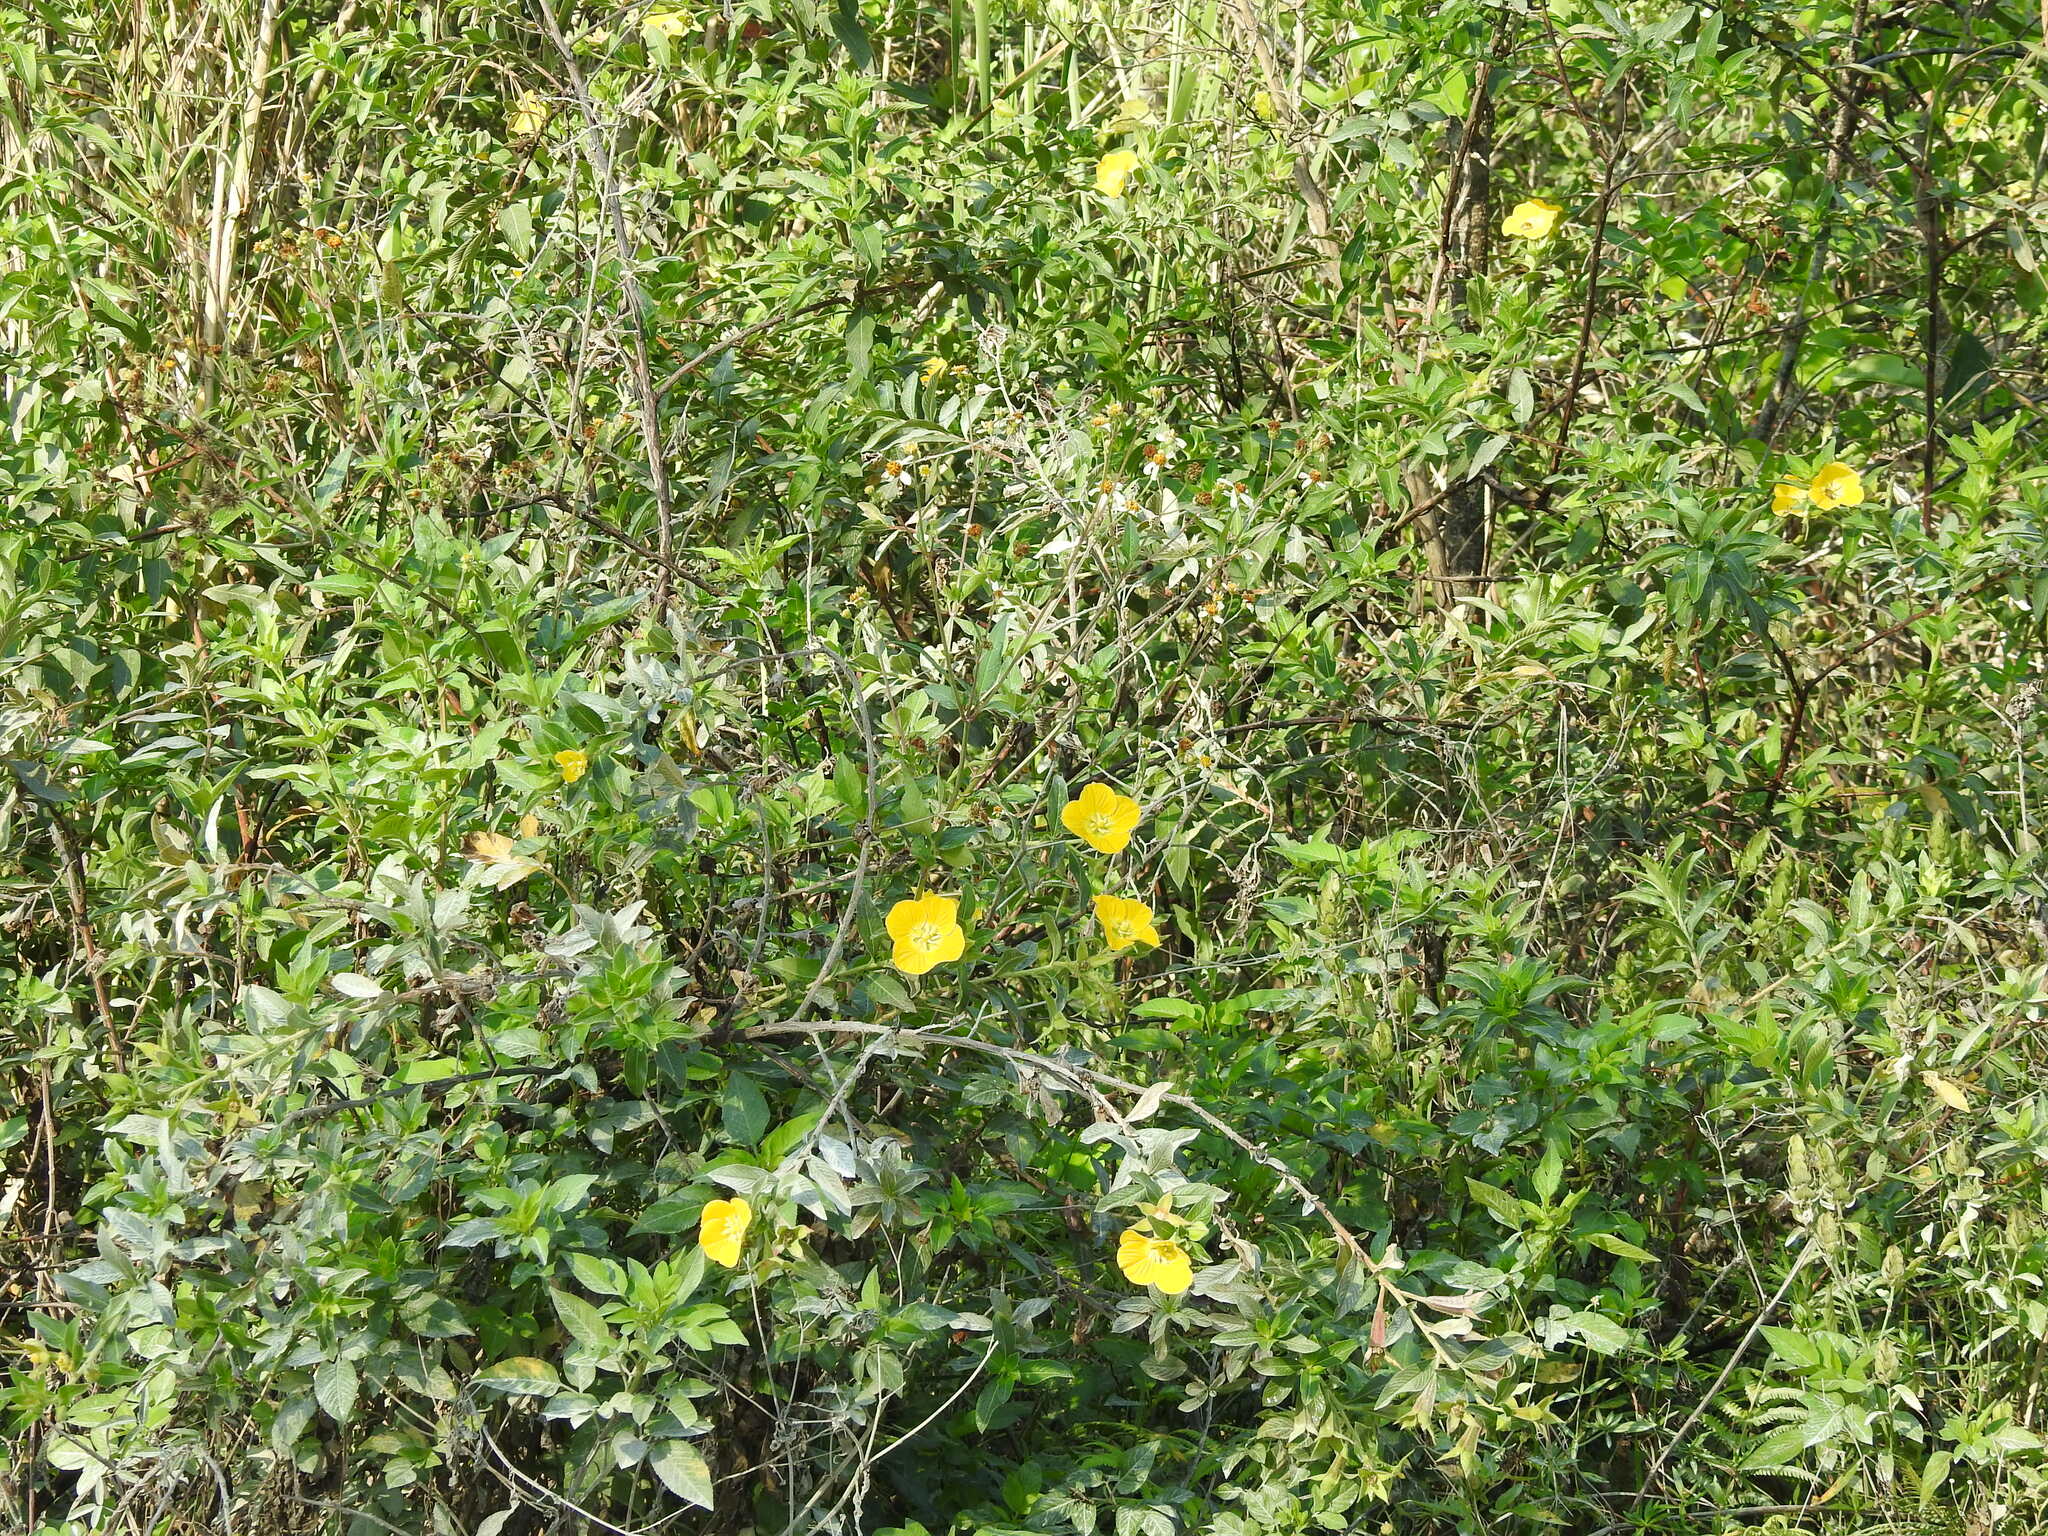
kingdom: Plantae
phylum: Tracheophyta
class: Magnoliopsida
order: Myrtales
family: Onagraceae
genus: Ludwigia
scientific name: Ludwigia peruviana
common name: Peruvian primrose-willow
